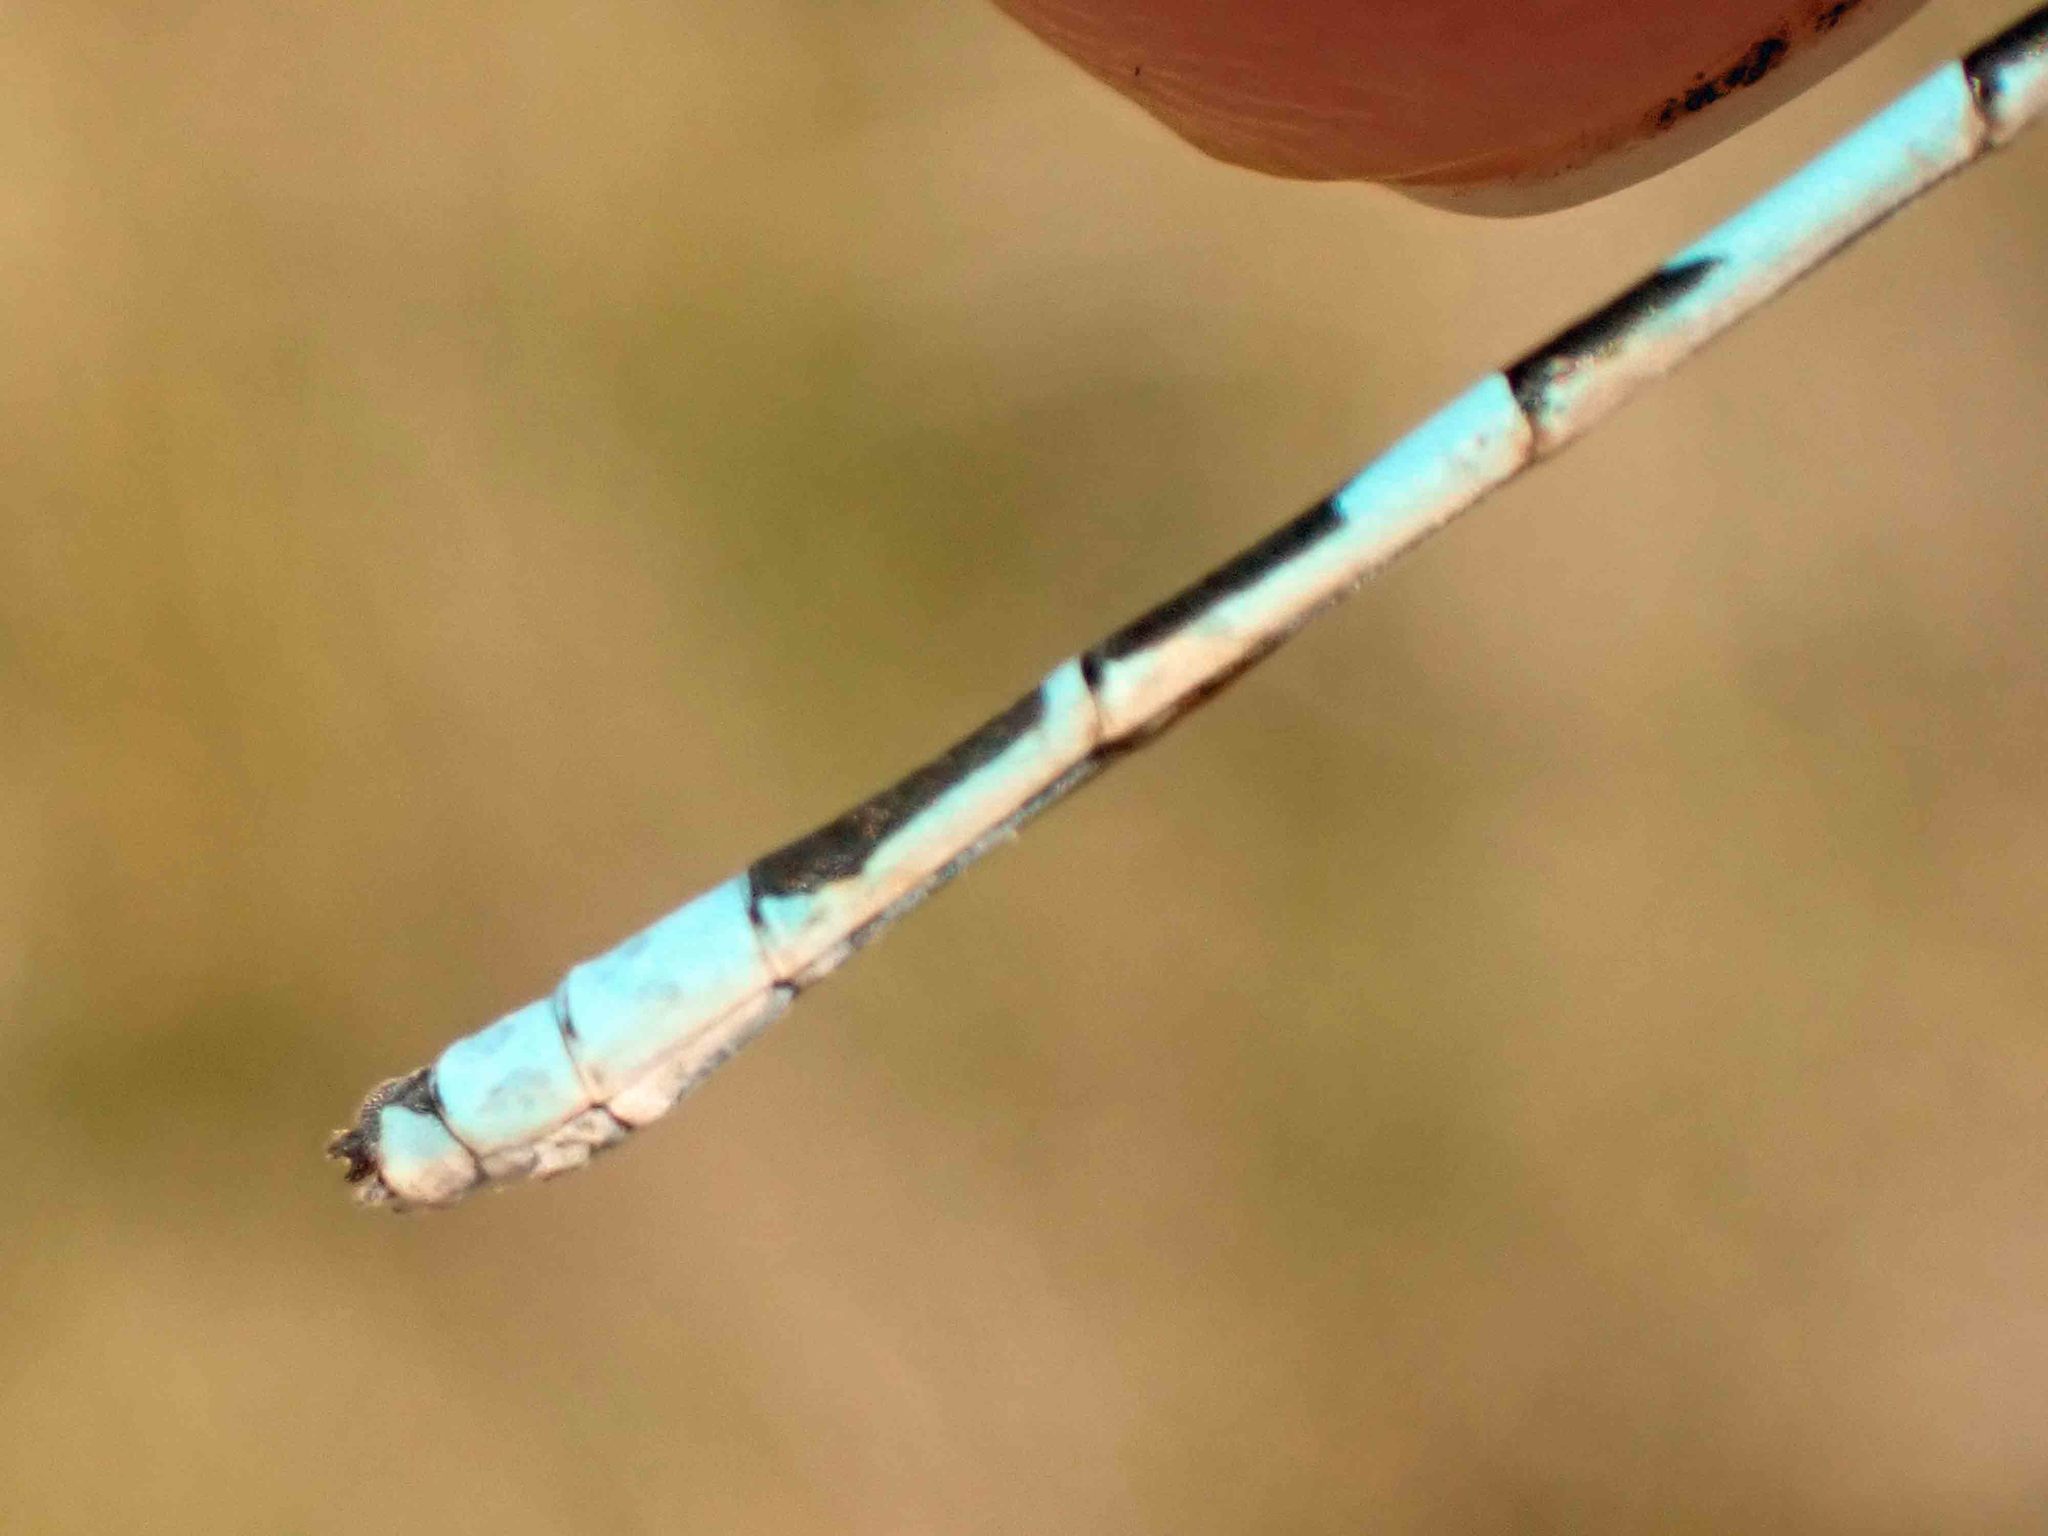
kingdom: Animalia
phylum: Arthropoda
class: Insecta
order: Odonata
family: Coenagrionidae
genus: Enallagma
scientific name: Enallagma ebrium
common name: Marsh bluet
